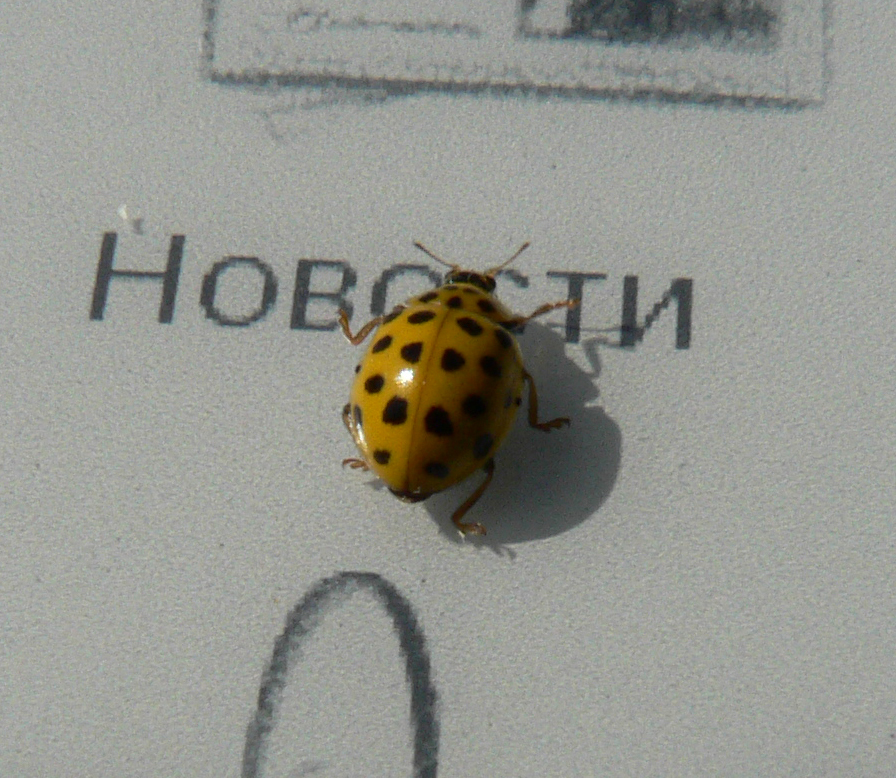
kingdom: Animalia
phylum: Arthropoda
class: Insecta
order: Coleoptera
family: Coccinellidae
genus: Psyllobora
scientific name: Psyllobora vigintiduopunctata
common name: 22-spot ladybird
